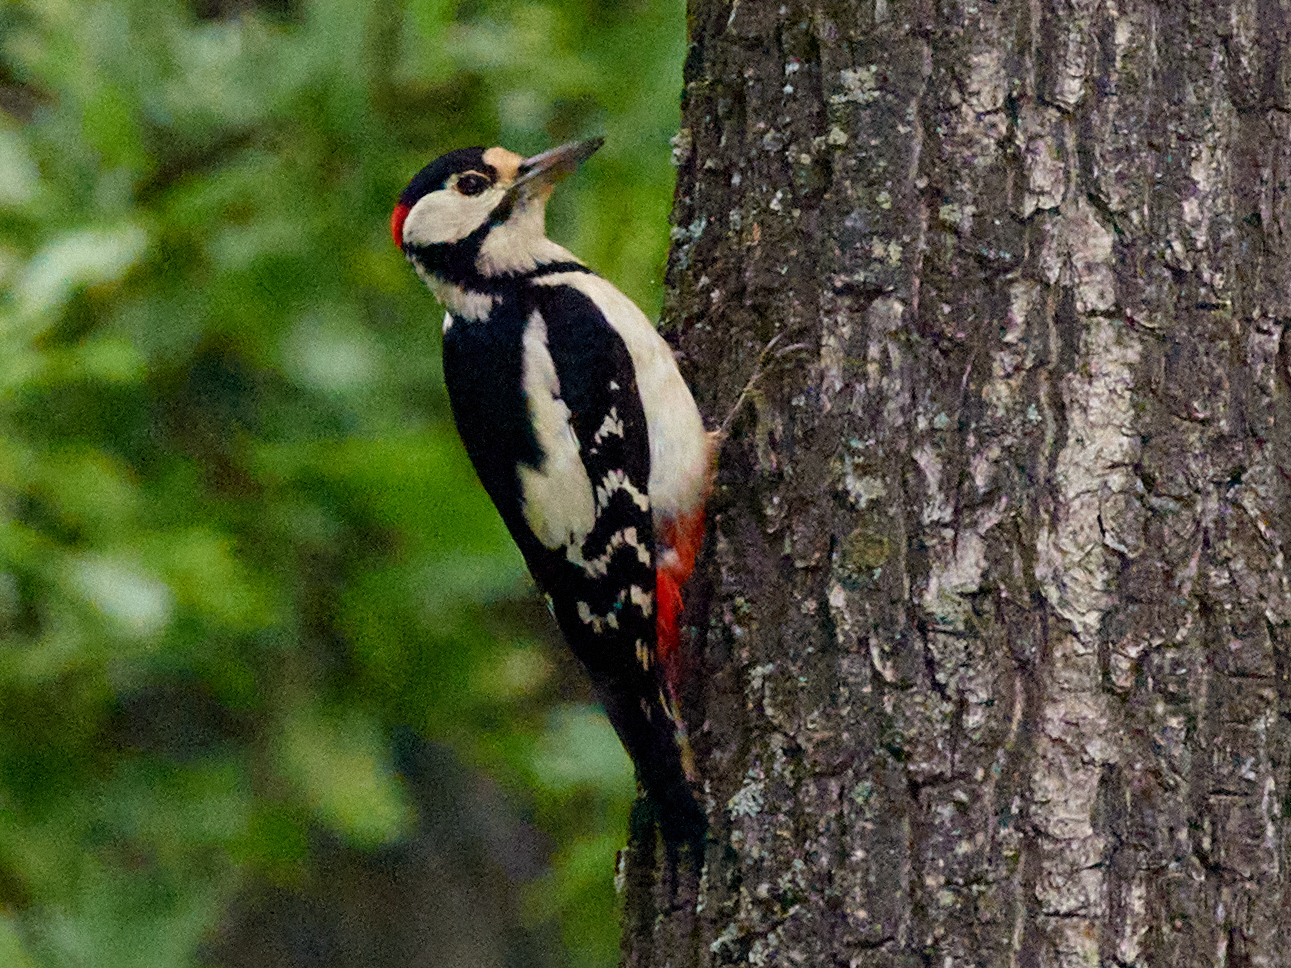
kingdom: Animalia
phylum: Chordata
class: Aves
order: Piciformes
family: Picidae
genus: Dendrocopos
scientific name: Dendrocopos major
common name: Great spotted woodpecker
